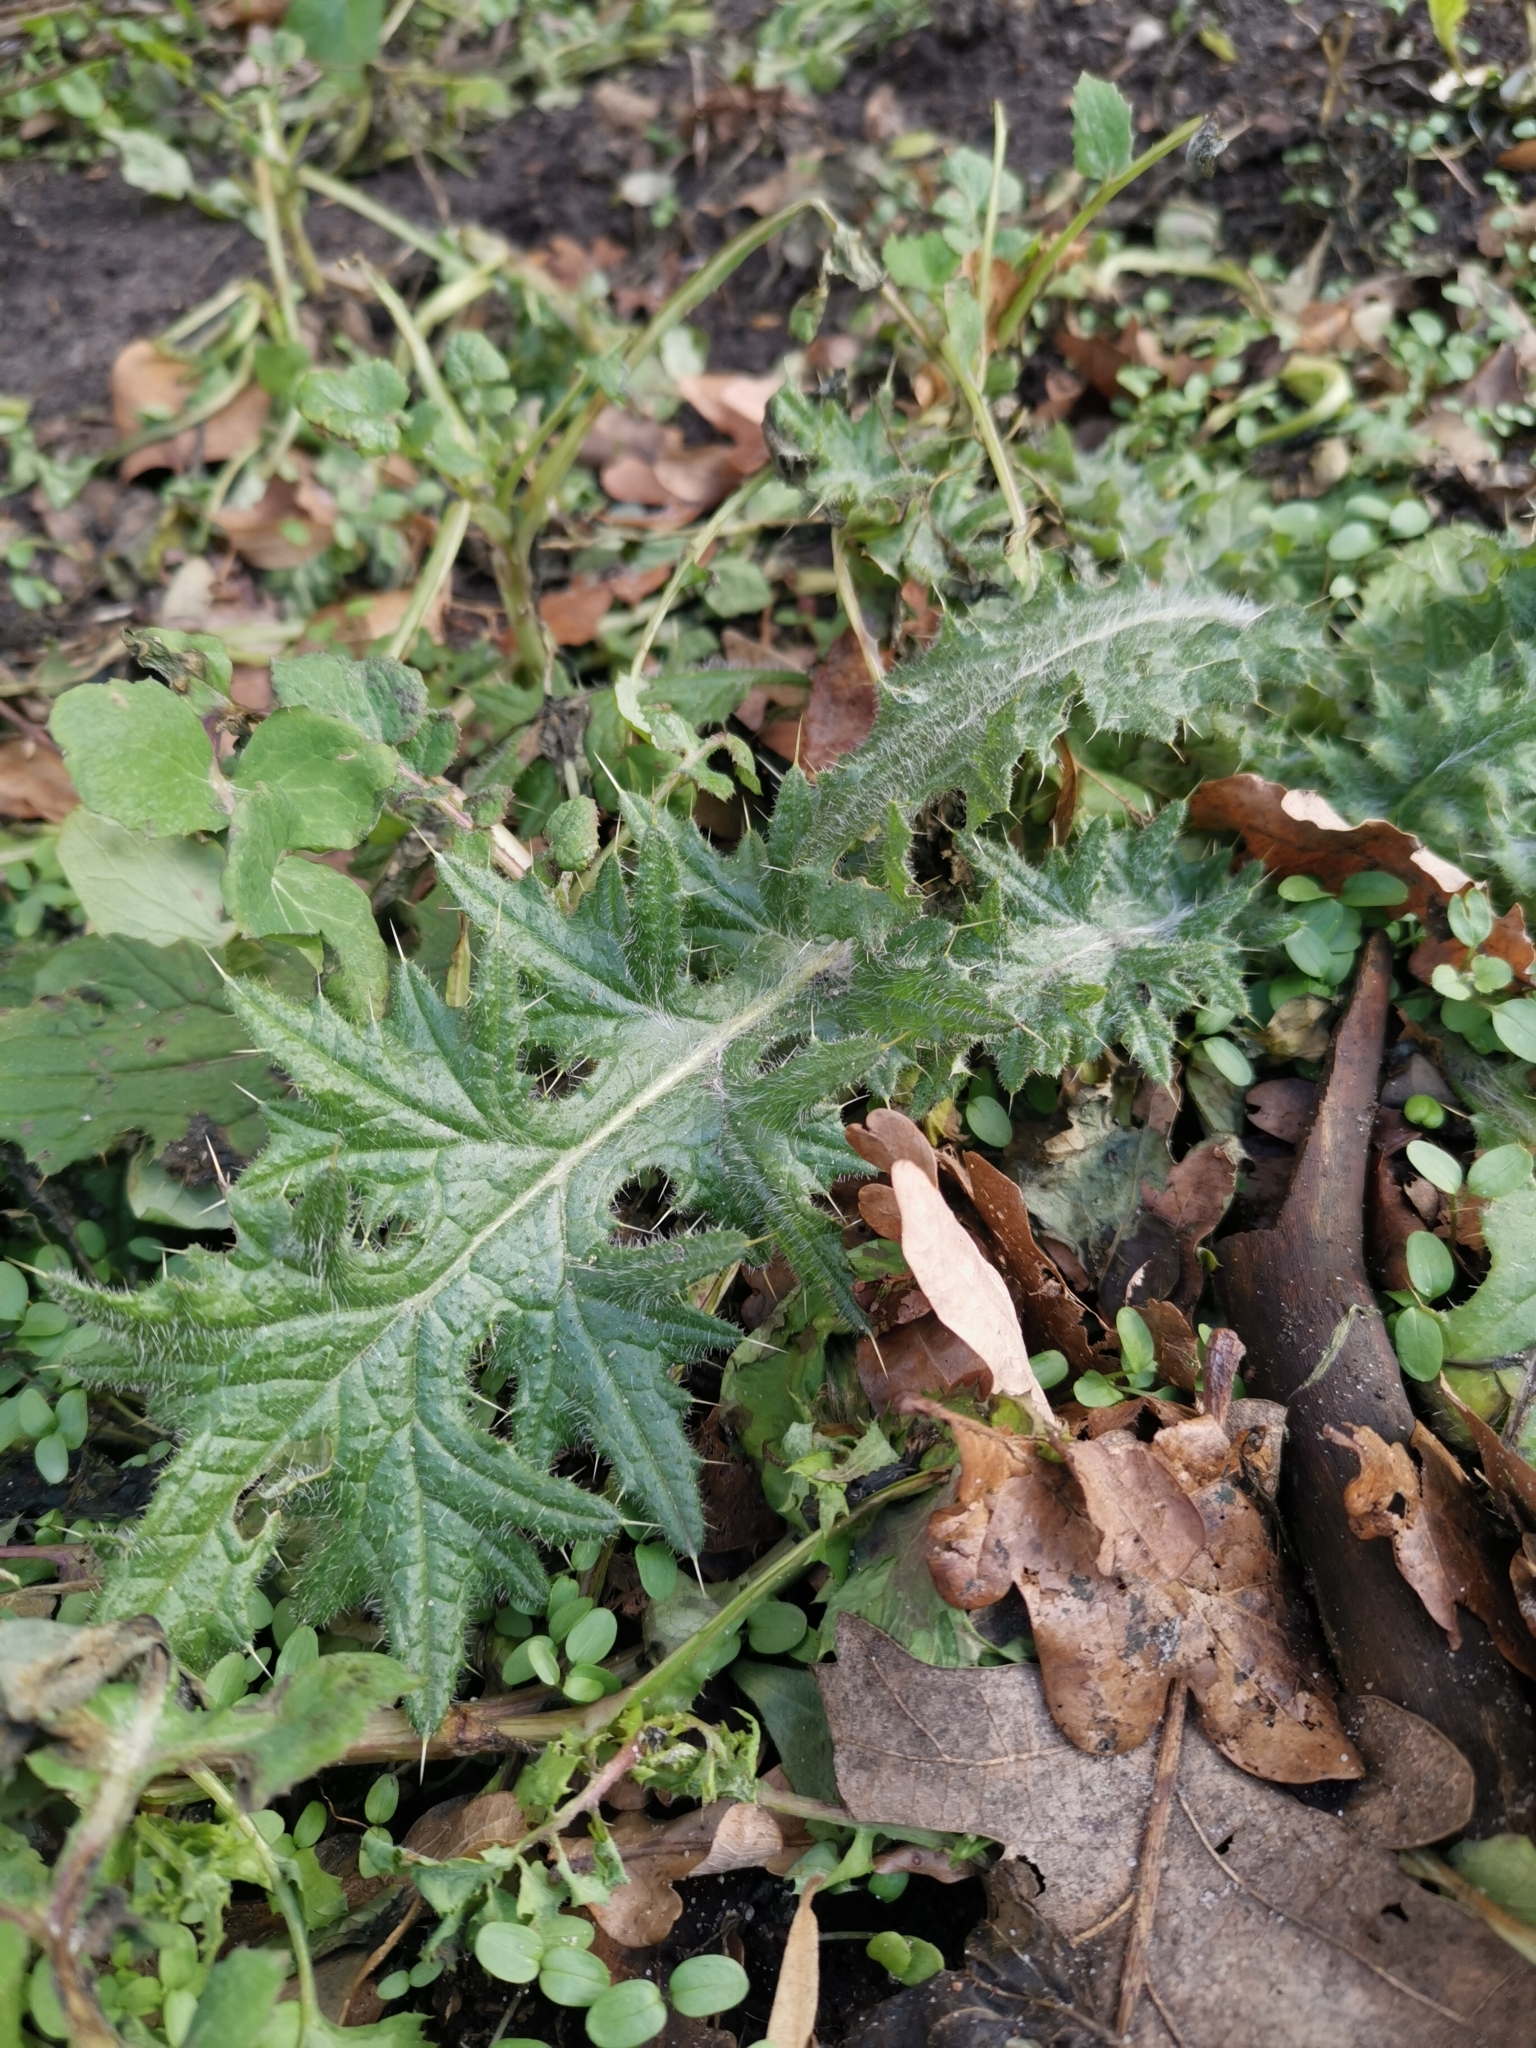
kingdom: Plantae
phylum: Tracheophyta
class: Magnoliopsida
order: Asterales
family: Asteraceae
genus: Cirsium
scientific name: Cirsium vulgare
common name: Bull thistle
